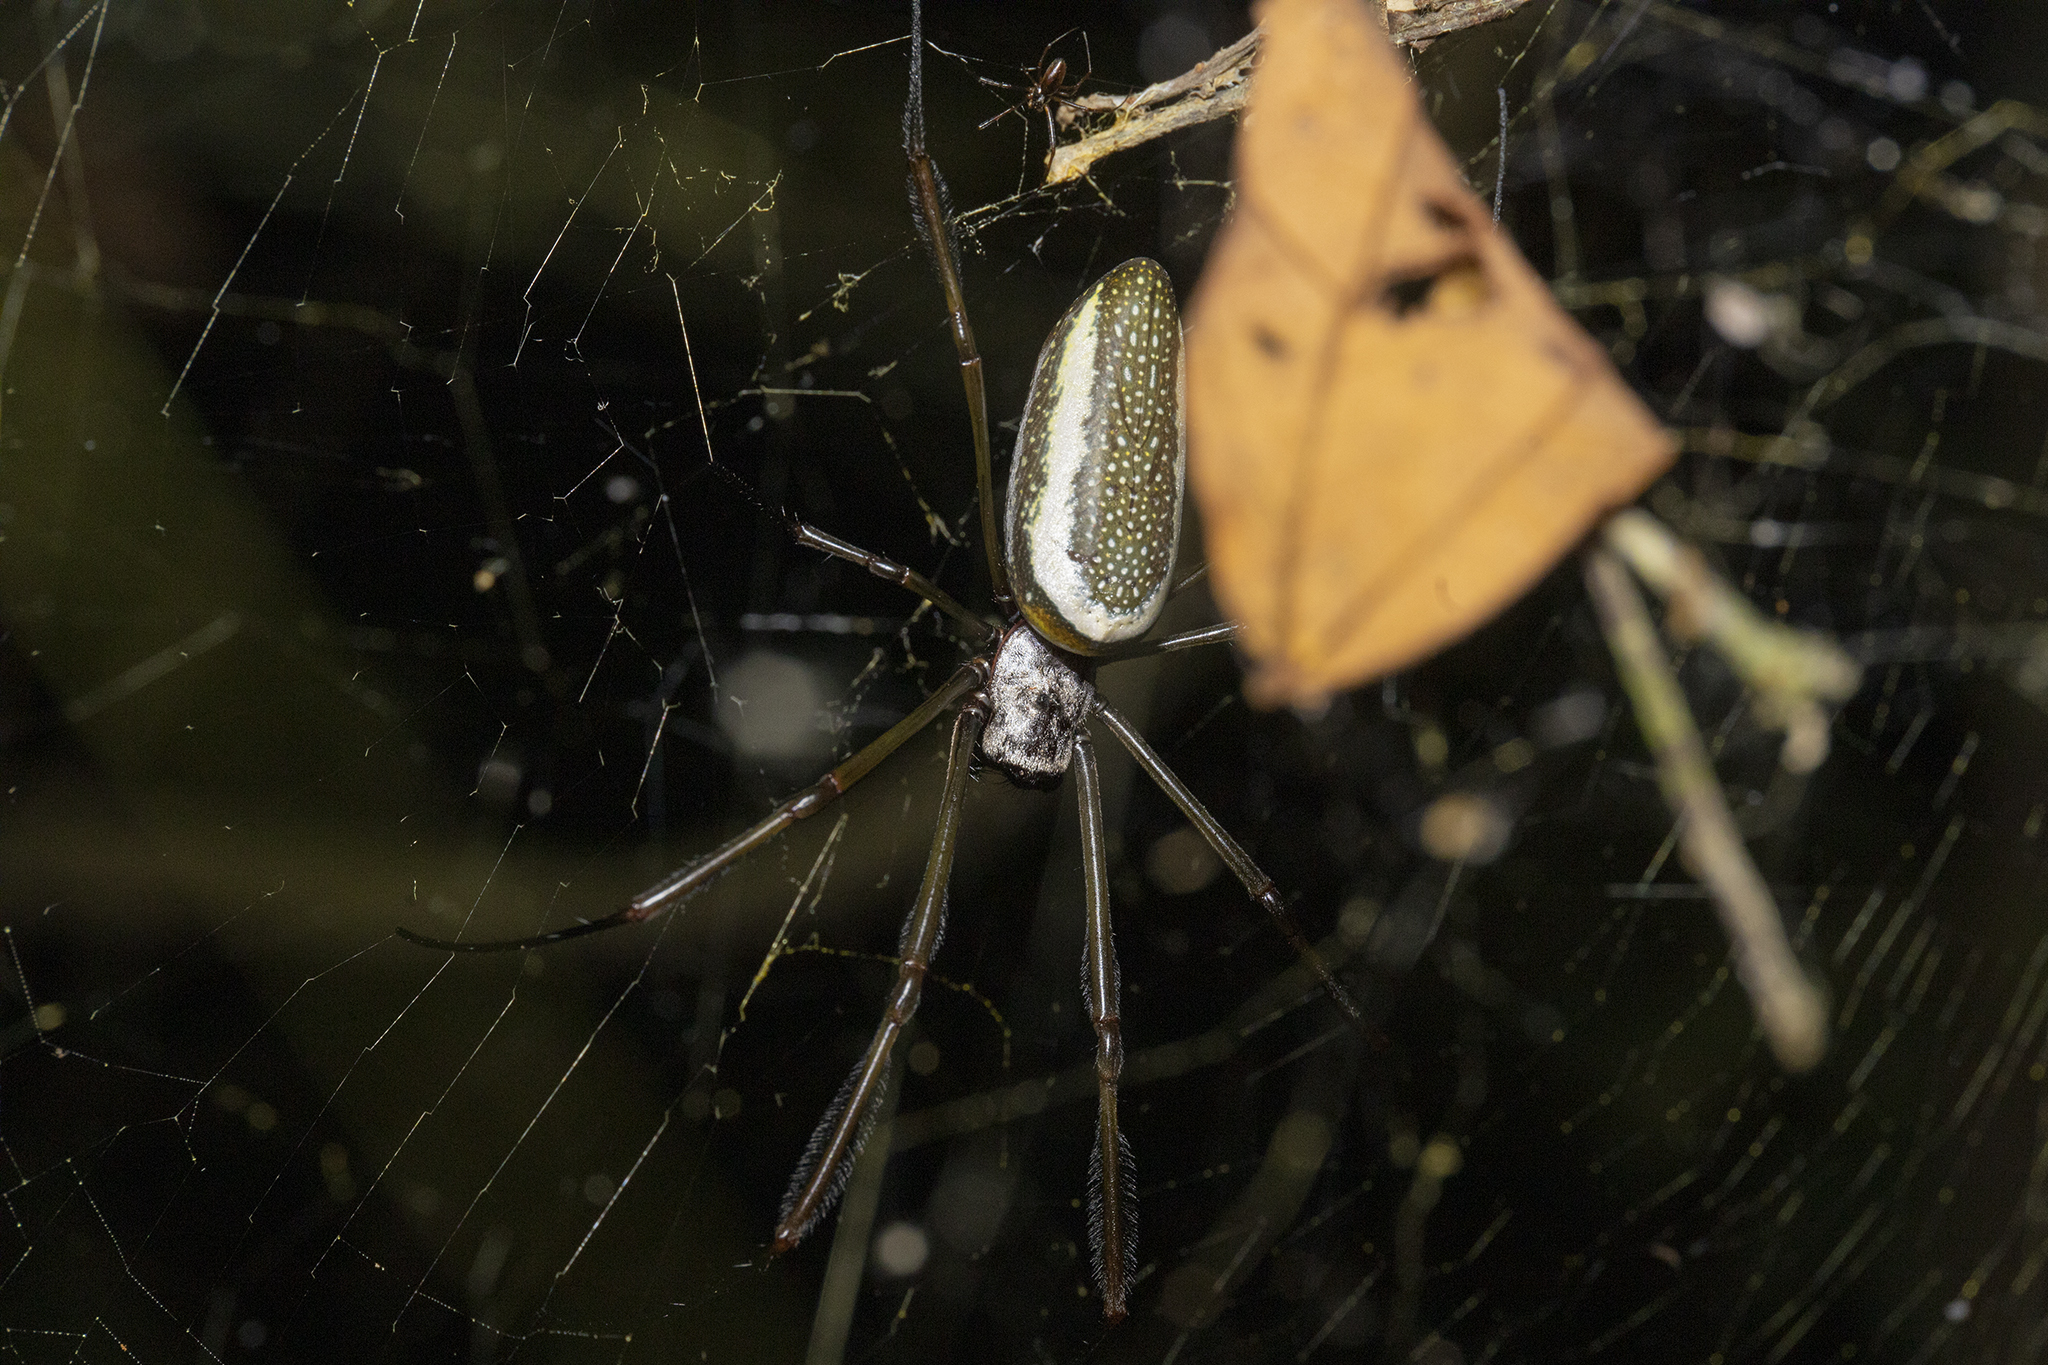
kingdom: Animalia
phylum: Arthropoda
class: Arachnida
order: Araneae
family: Araneidae
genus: Trichonephila
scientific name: Trichonephila clavipes
